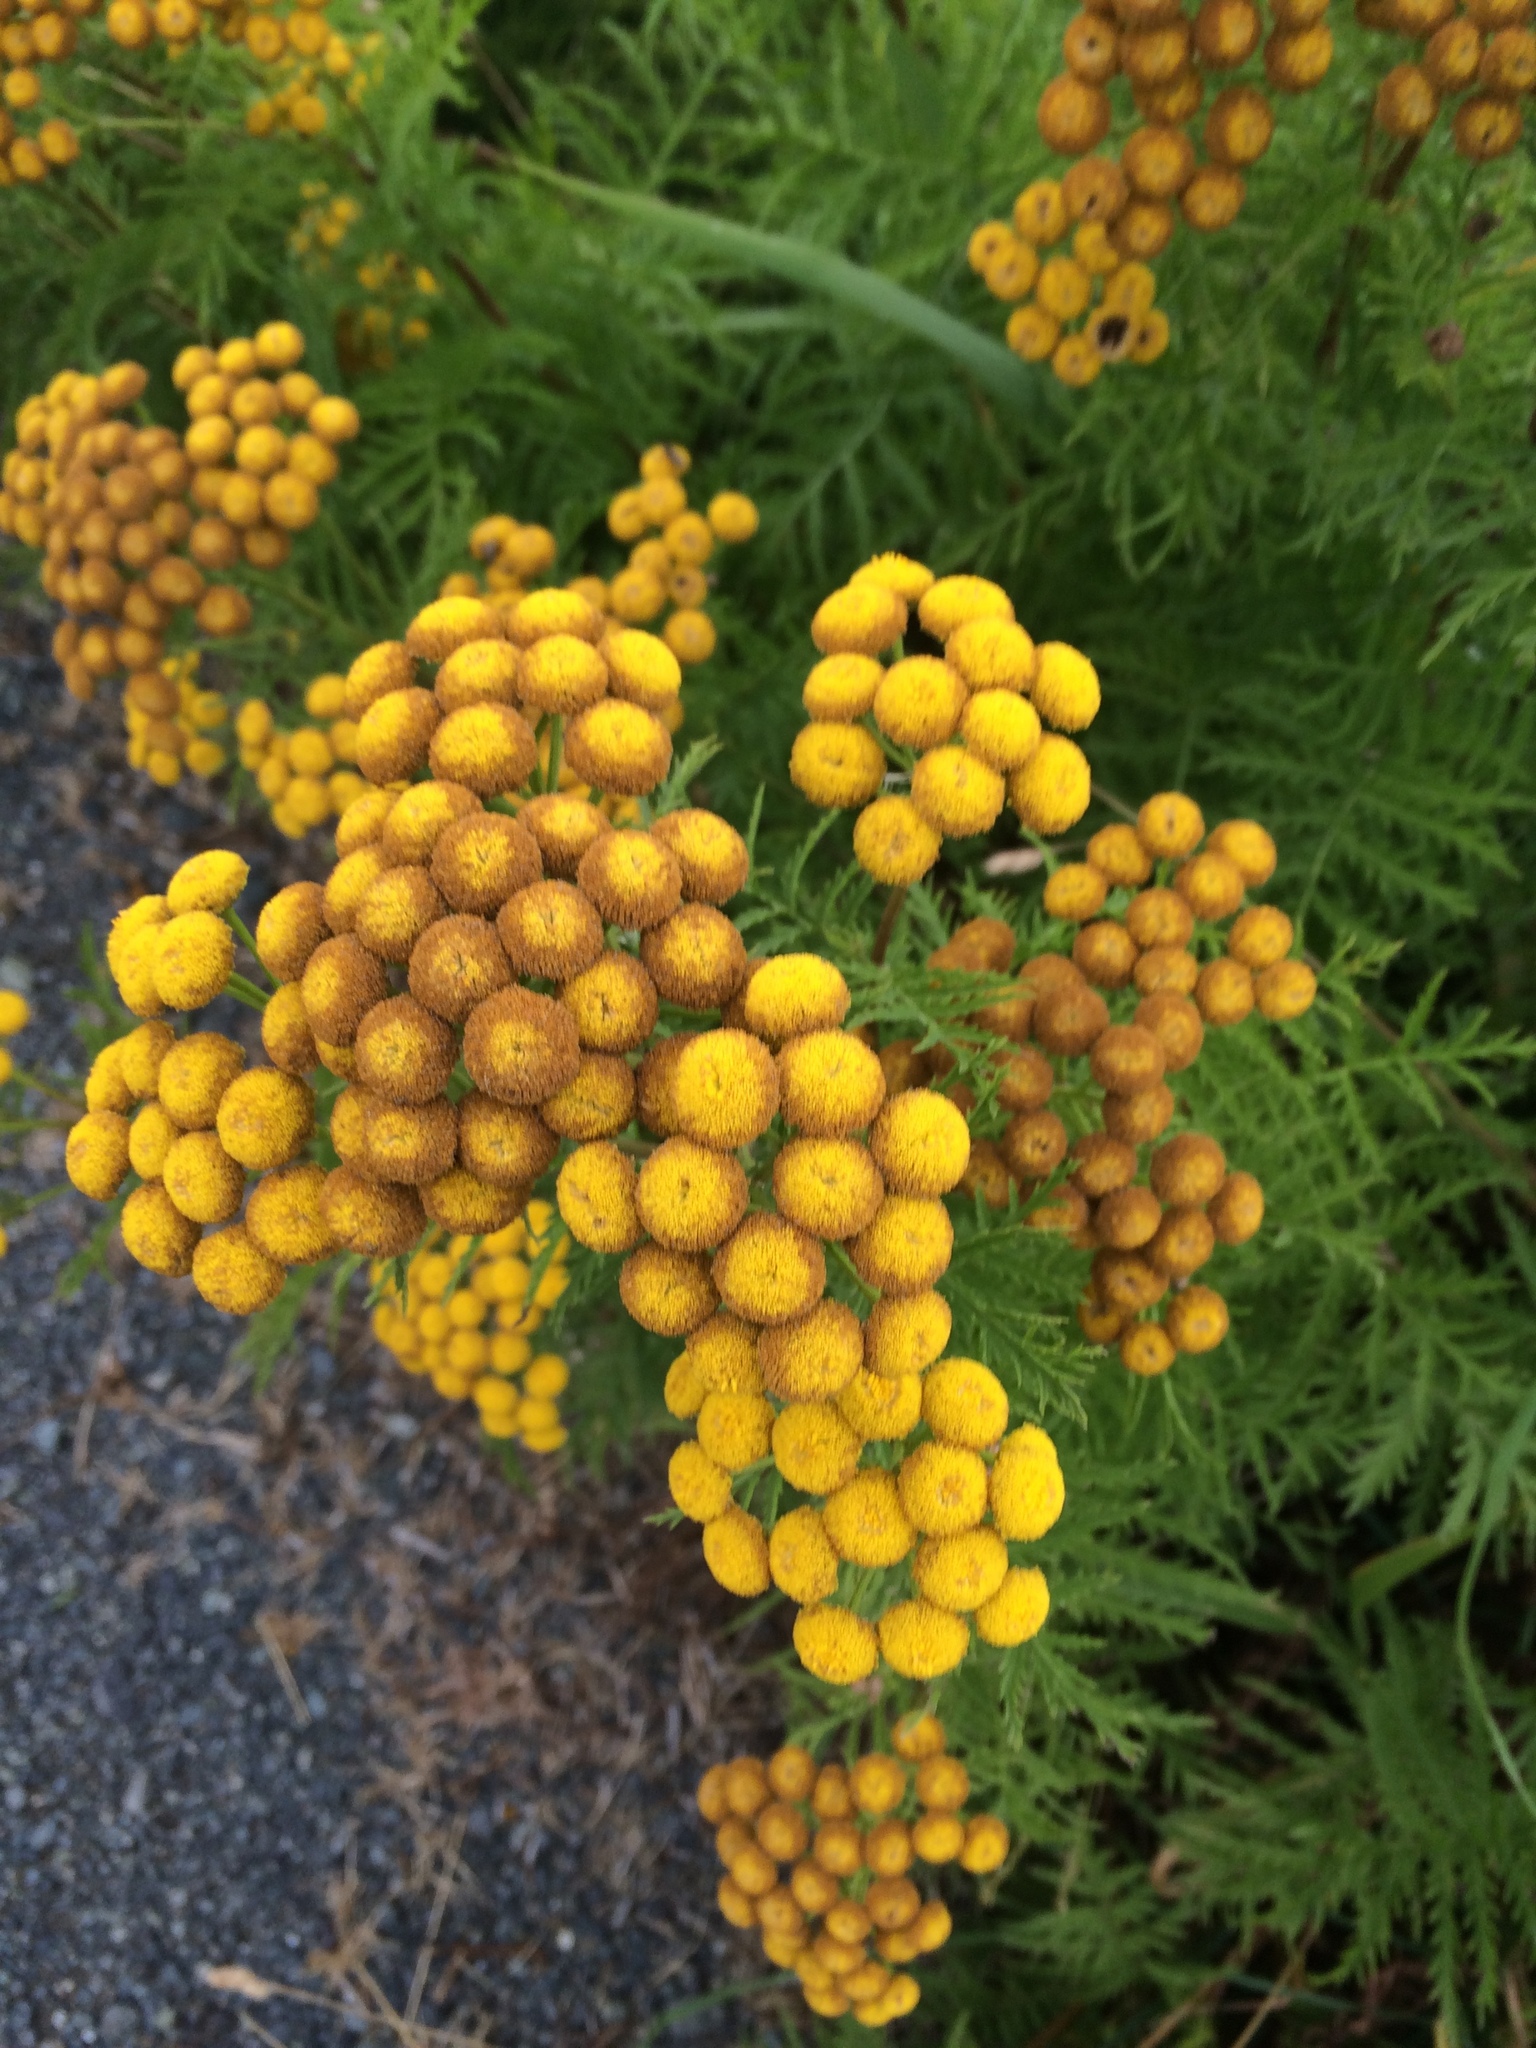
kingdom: Plantae
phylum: Tracheophyta
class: Magnoliopsida
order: Asterales
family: Asteraceae
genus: Tanacetum
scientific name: Tanacetum vulgare
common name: Common tansy
